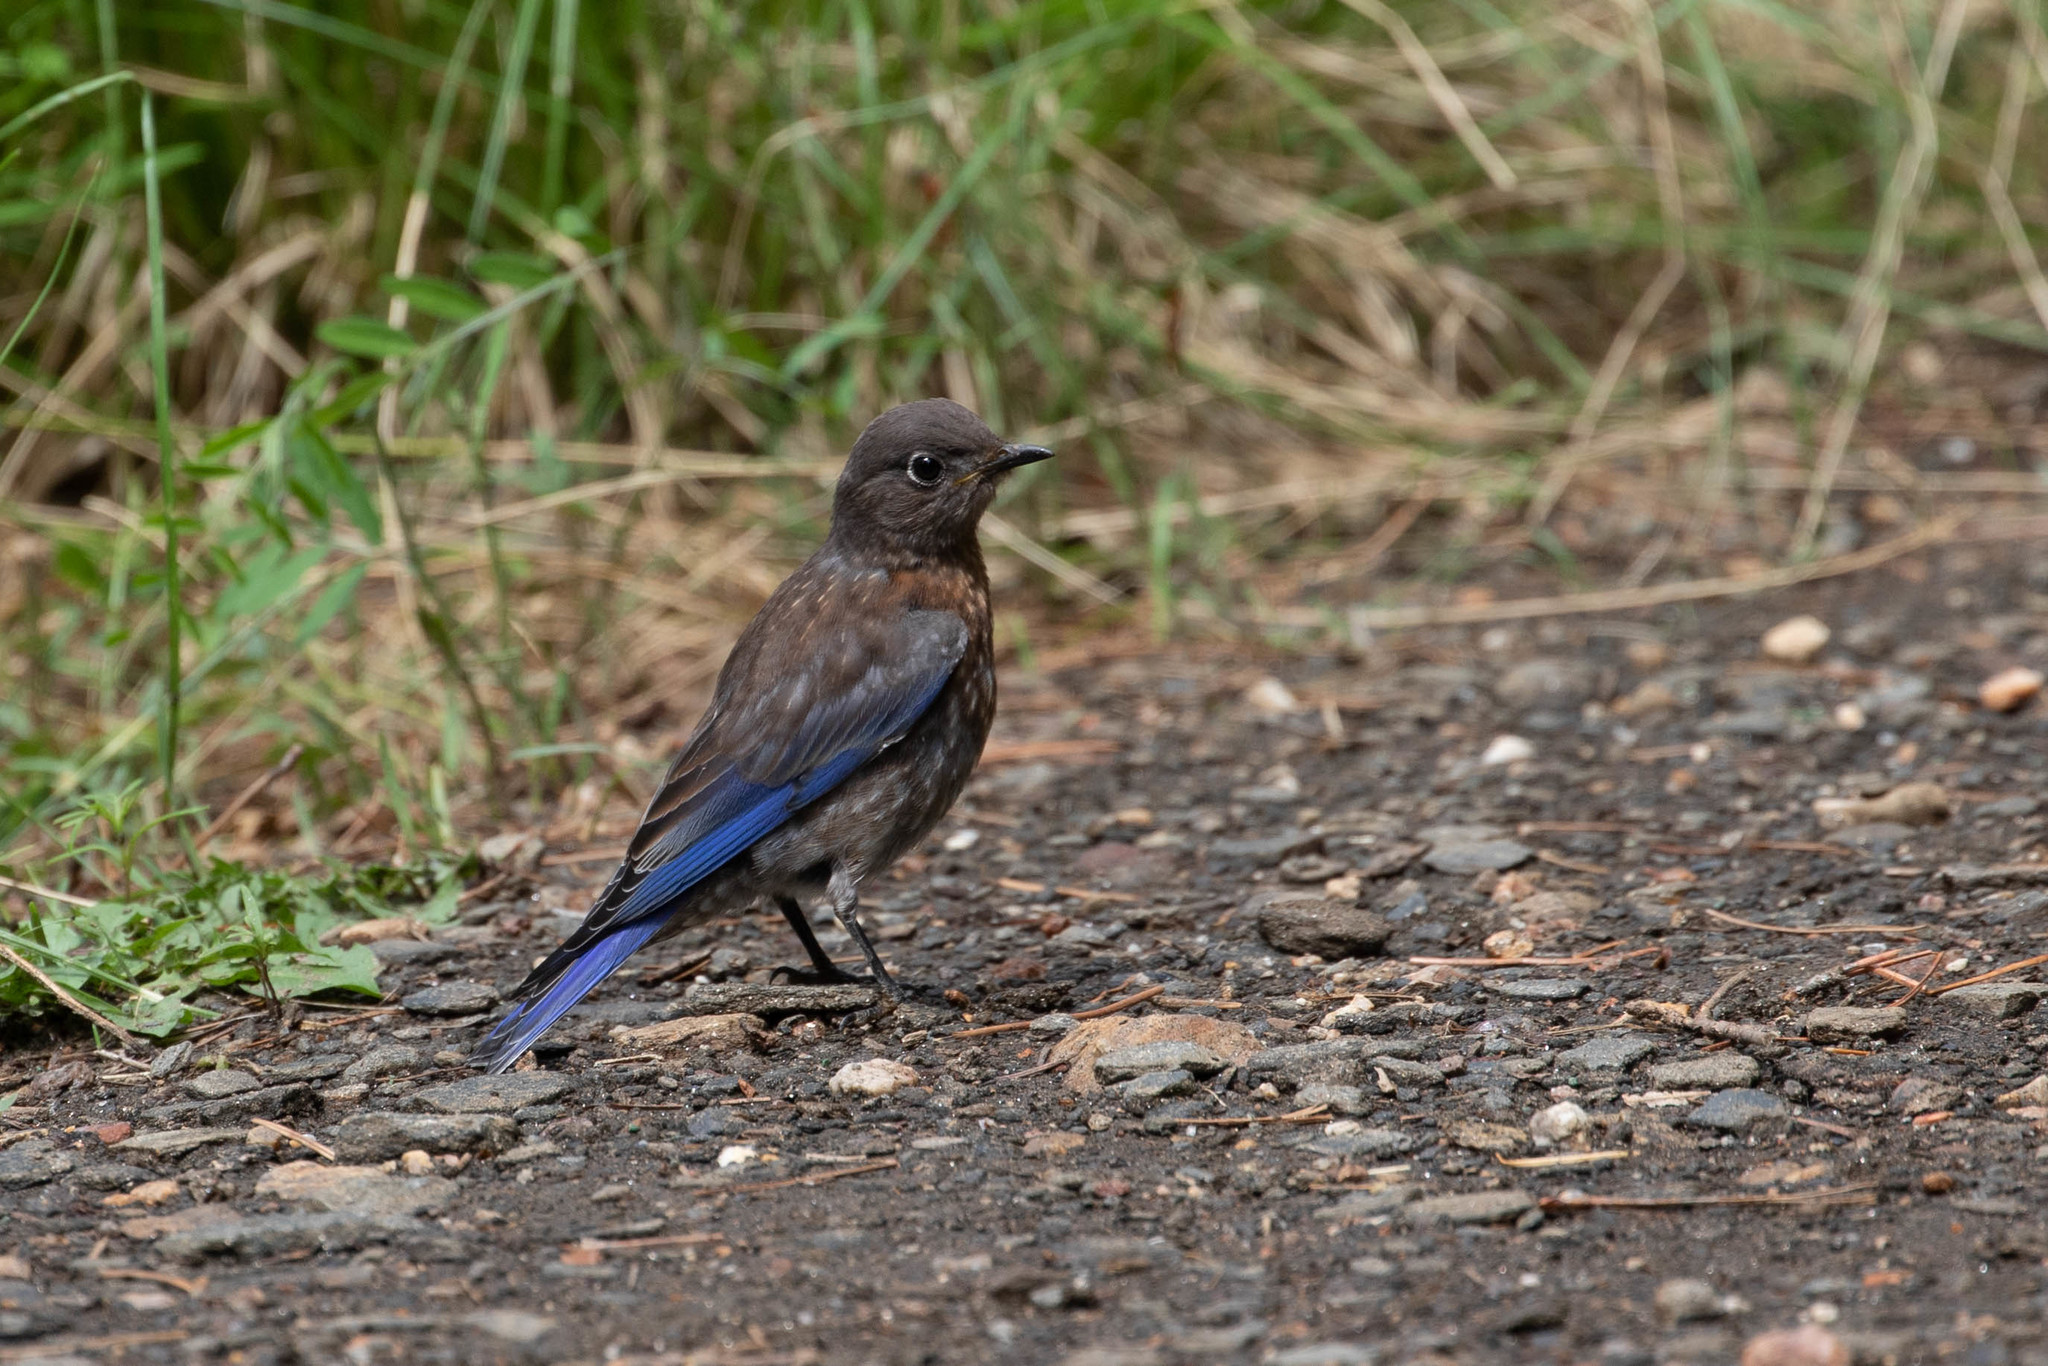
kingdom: Animalia
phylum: Chordata
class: Aves
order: Passeriformes
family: Turdidae
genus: Sialia
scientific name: Sialia mexicana
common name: Western bluebird
